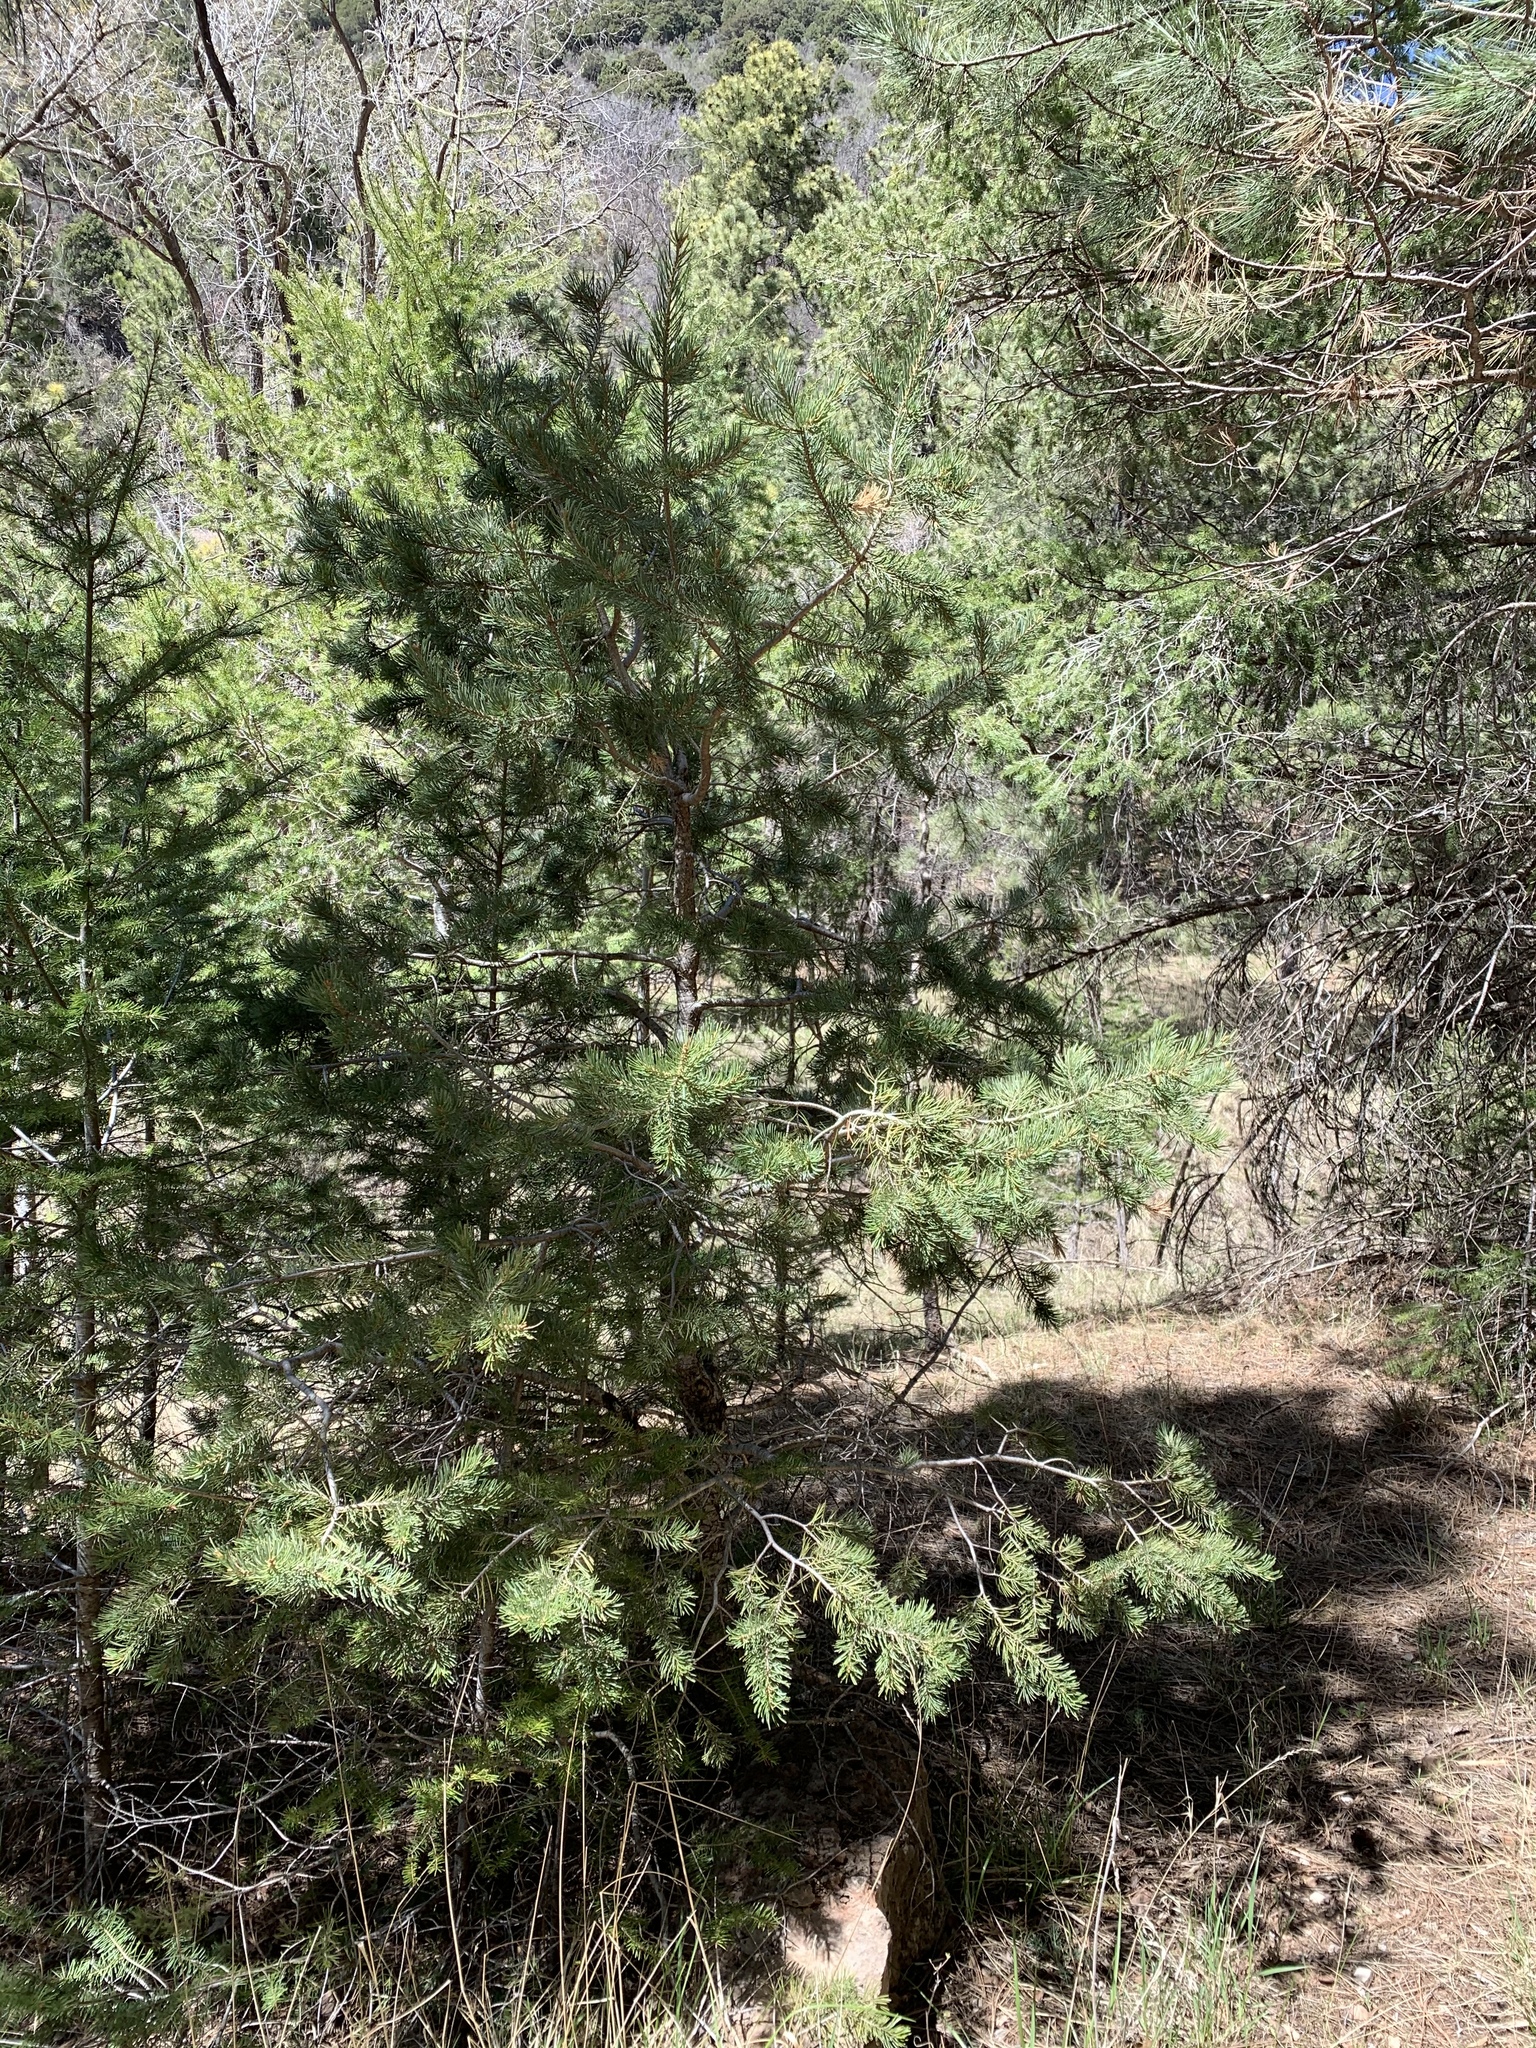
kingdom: Plantae
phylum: Tracheophyta
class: Pinopsida
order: Pinales
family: Pinaceae
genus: Pinus
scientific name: Pinus edulis
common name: Colorado pinyon
